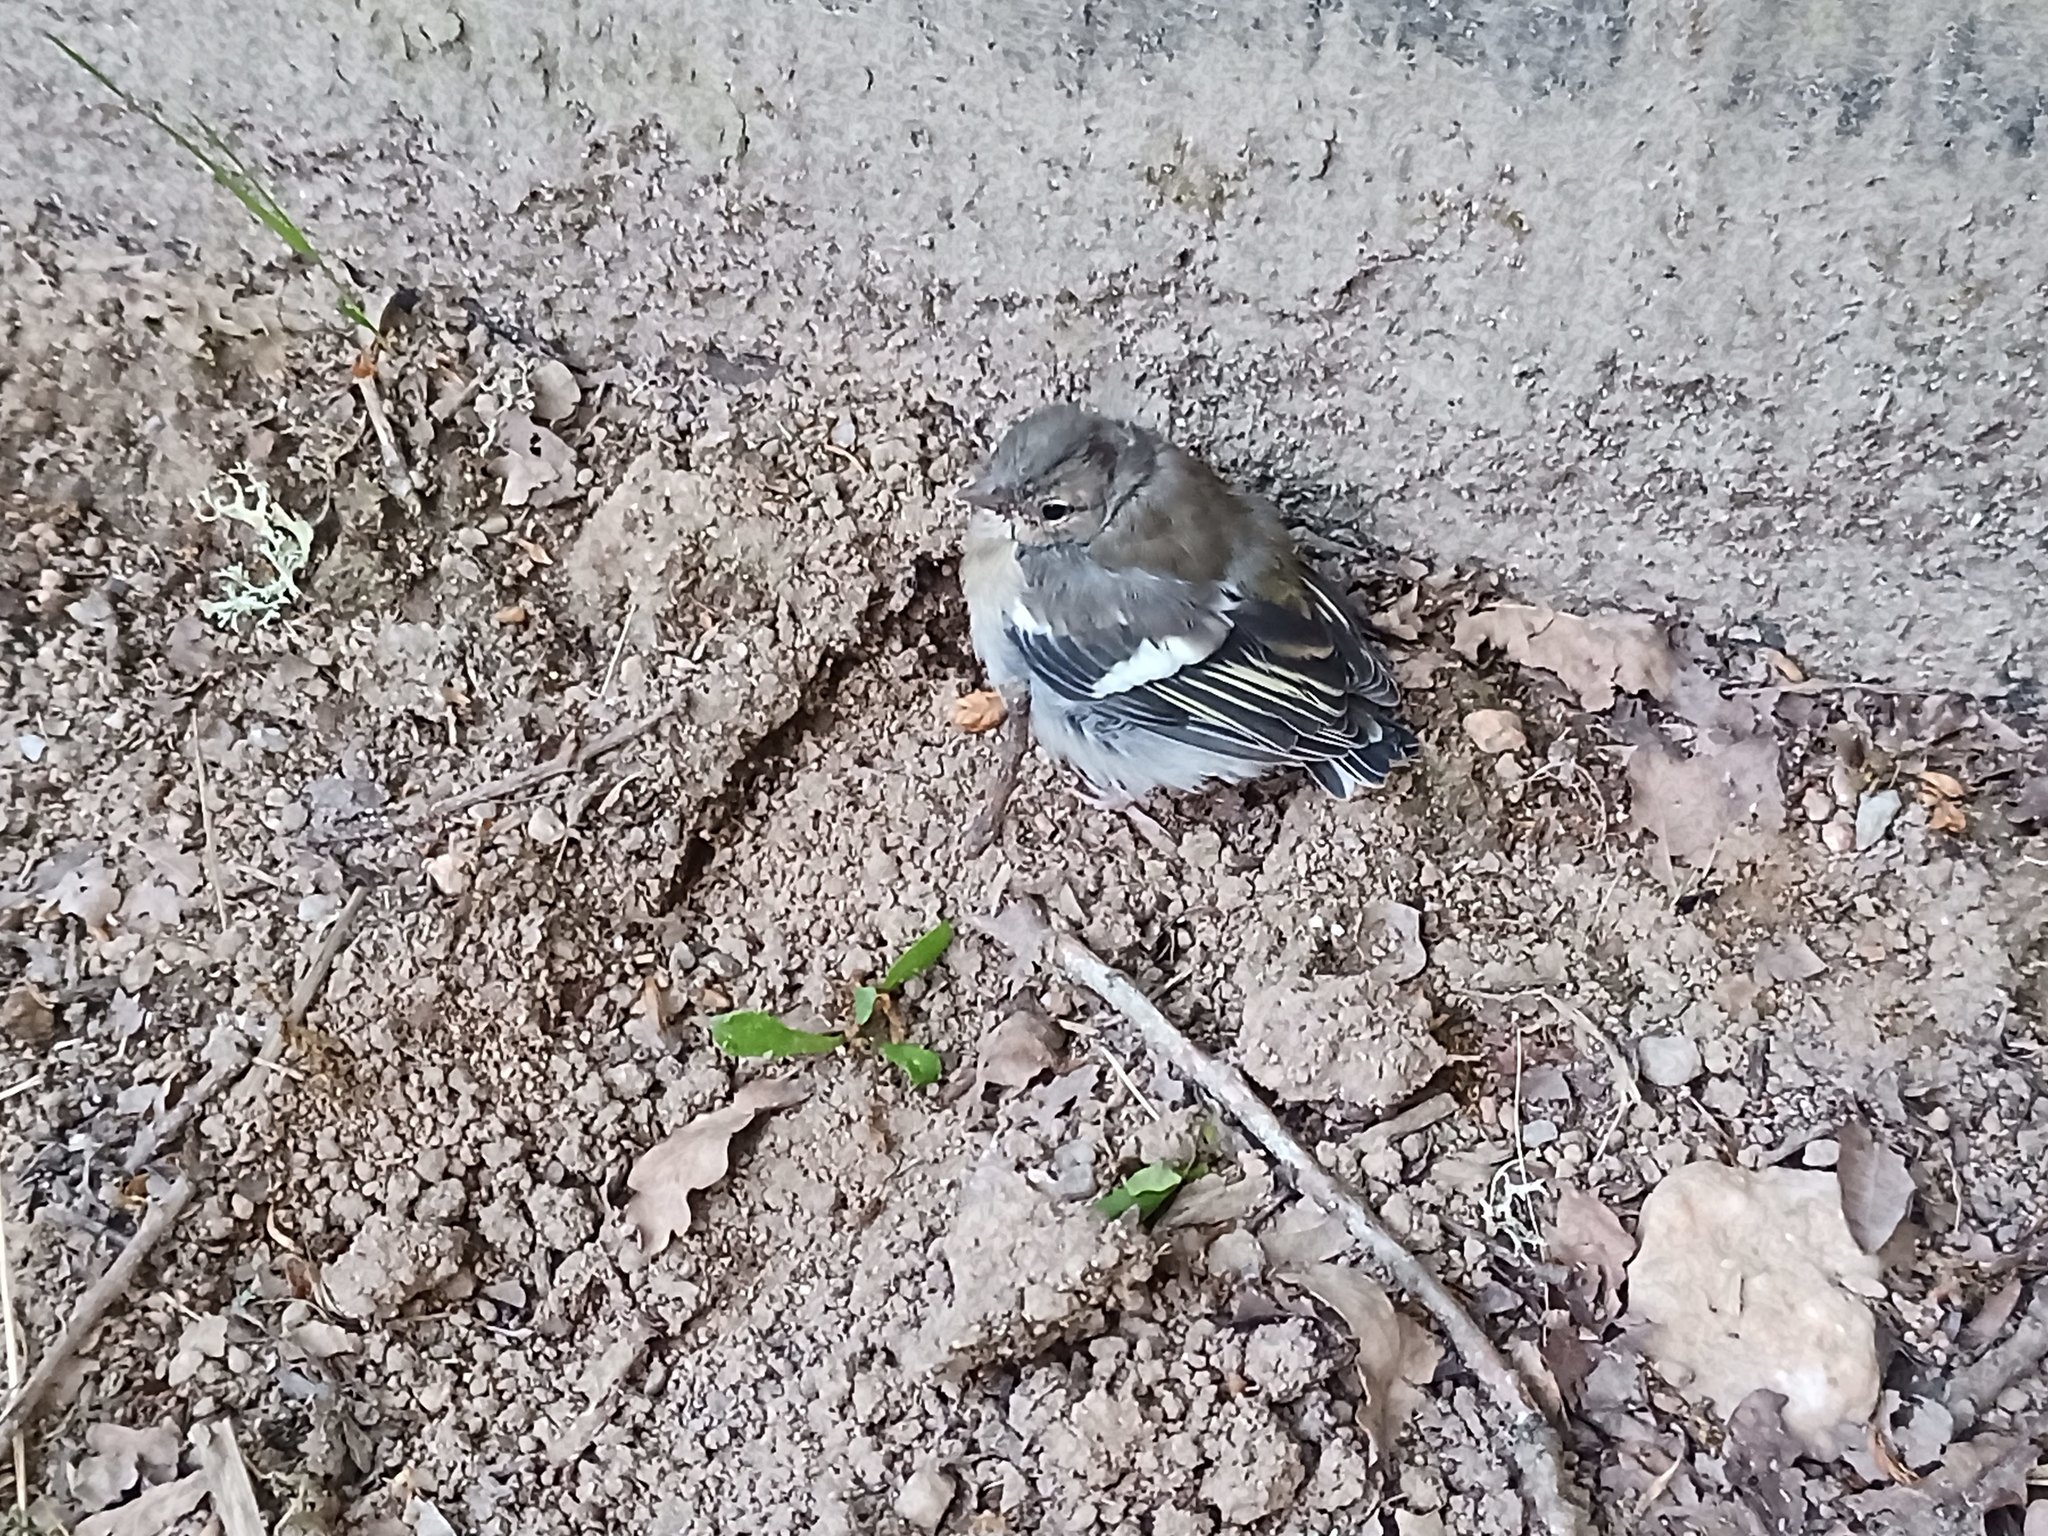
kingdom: Animalia
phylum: Chordata
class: Aves
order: Passeriformes
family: Fringillidae
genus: Fringilla
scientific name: Fringilla coelebs
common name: Common chaffinch
